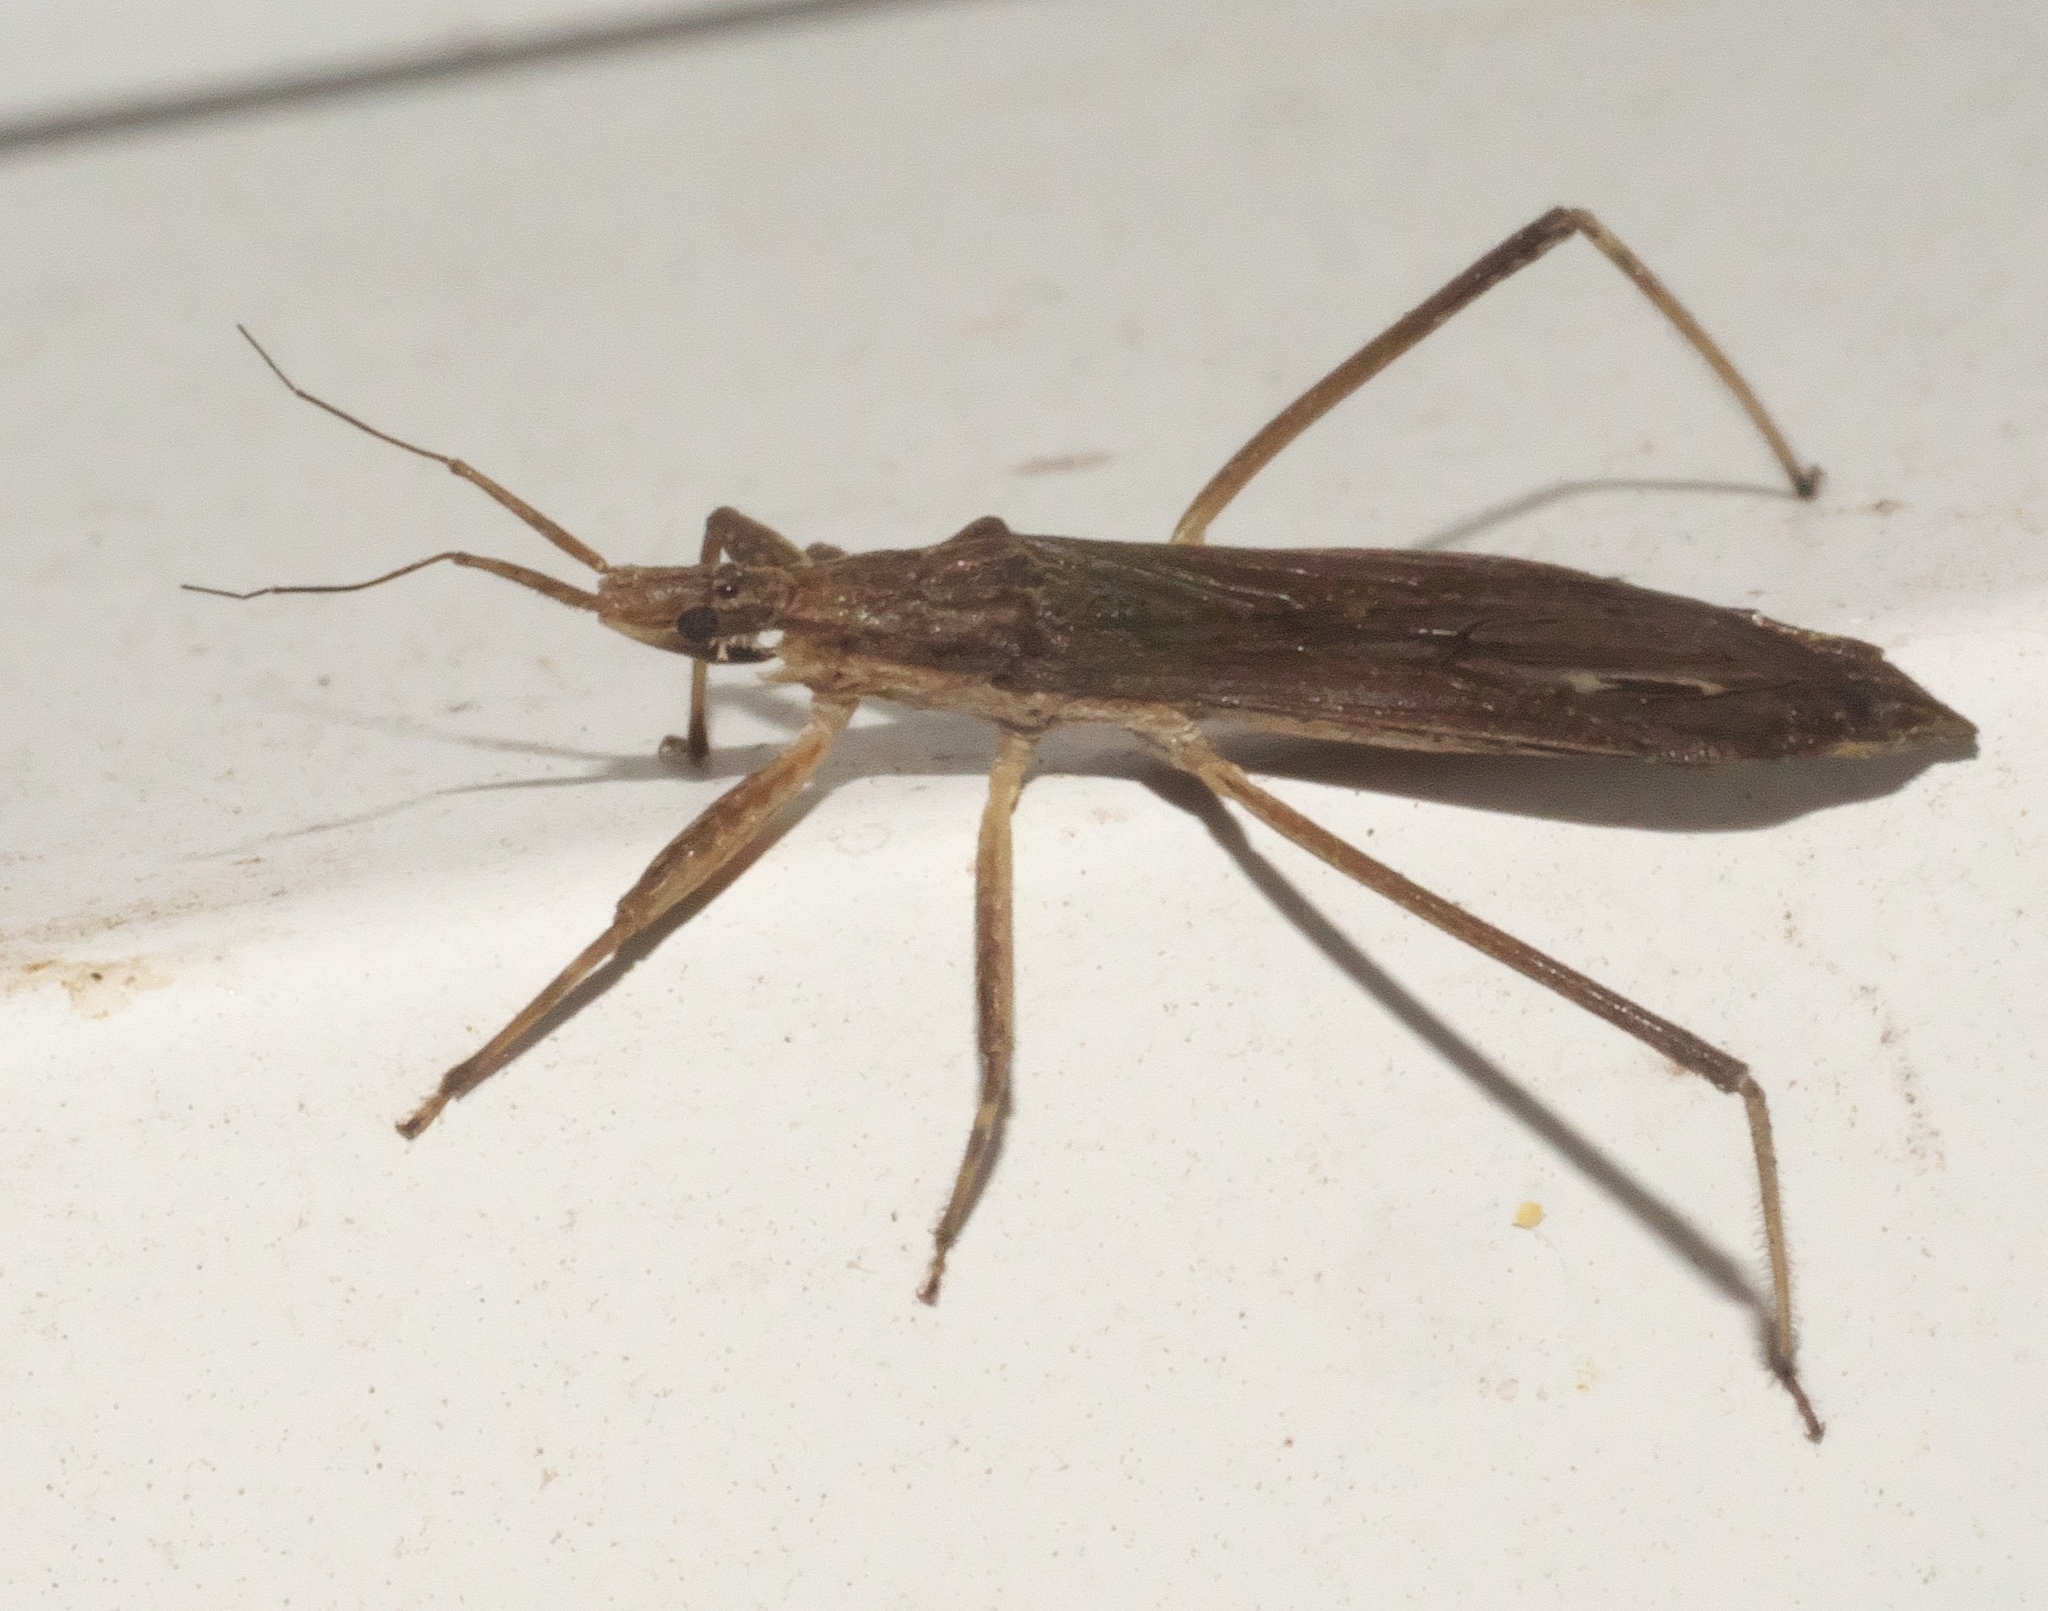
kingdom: Animalia
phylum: Arthropoda
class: Insecta
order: Hemiptera
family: Reduviidae
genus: Pygolampis
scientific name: Pygolampis pectoralis
